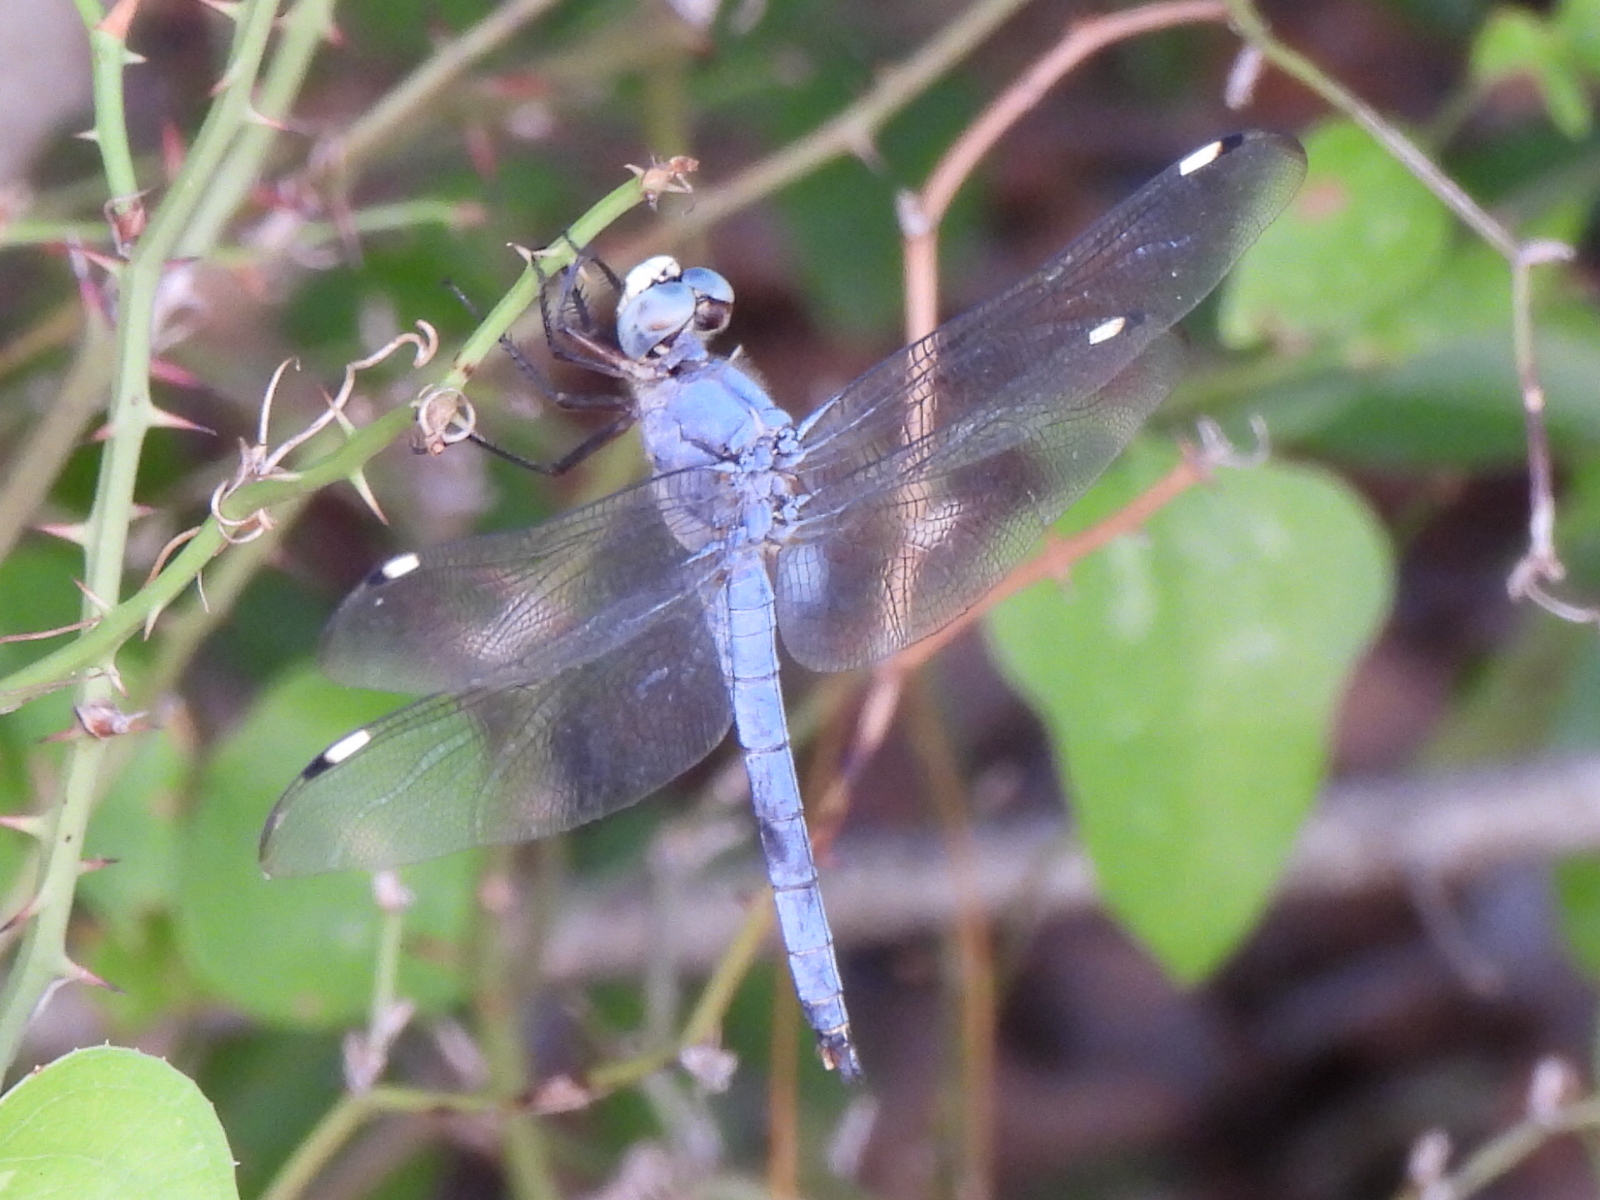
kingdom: Animalia
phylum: Arthropoda
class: Insecta
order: Odonata
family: Libellulidae
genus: Libellula
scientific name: Libellula comanche
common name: Comanche skimmer
